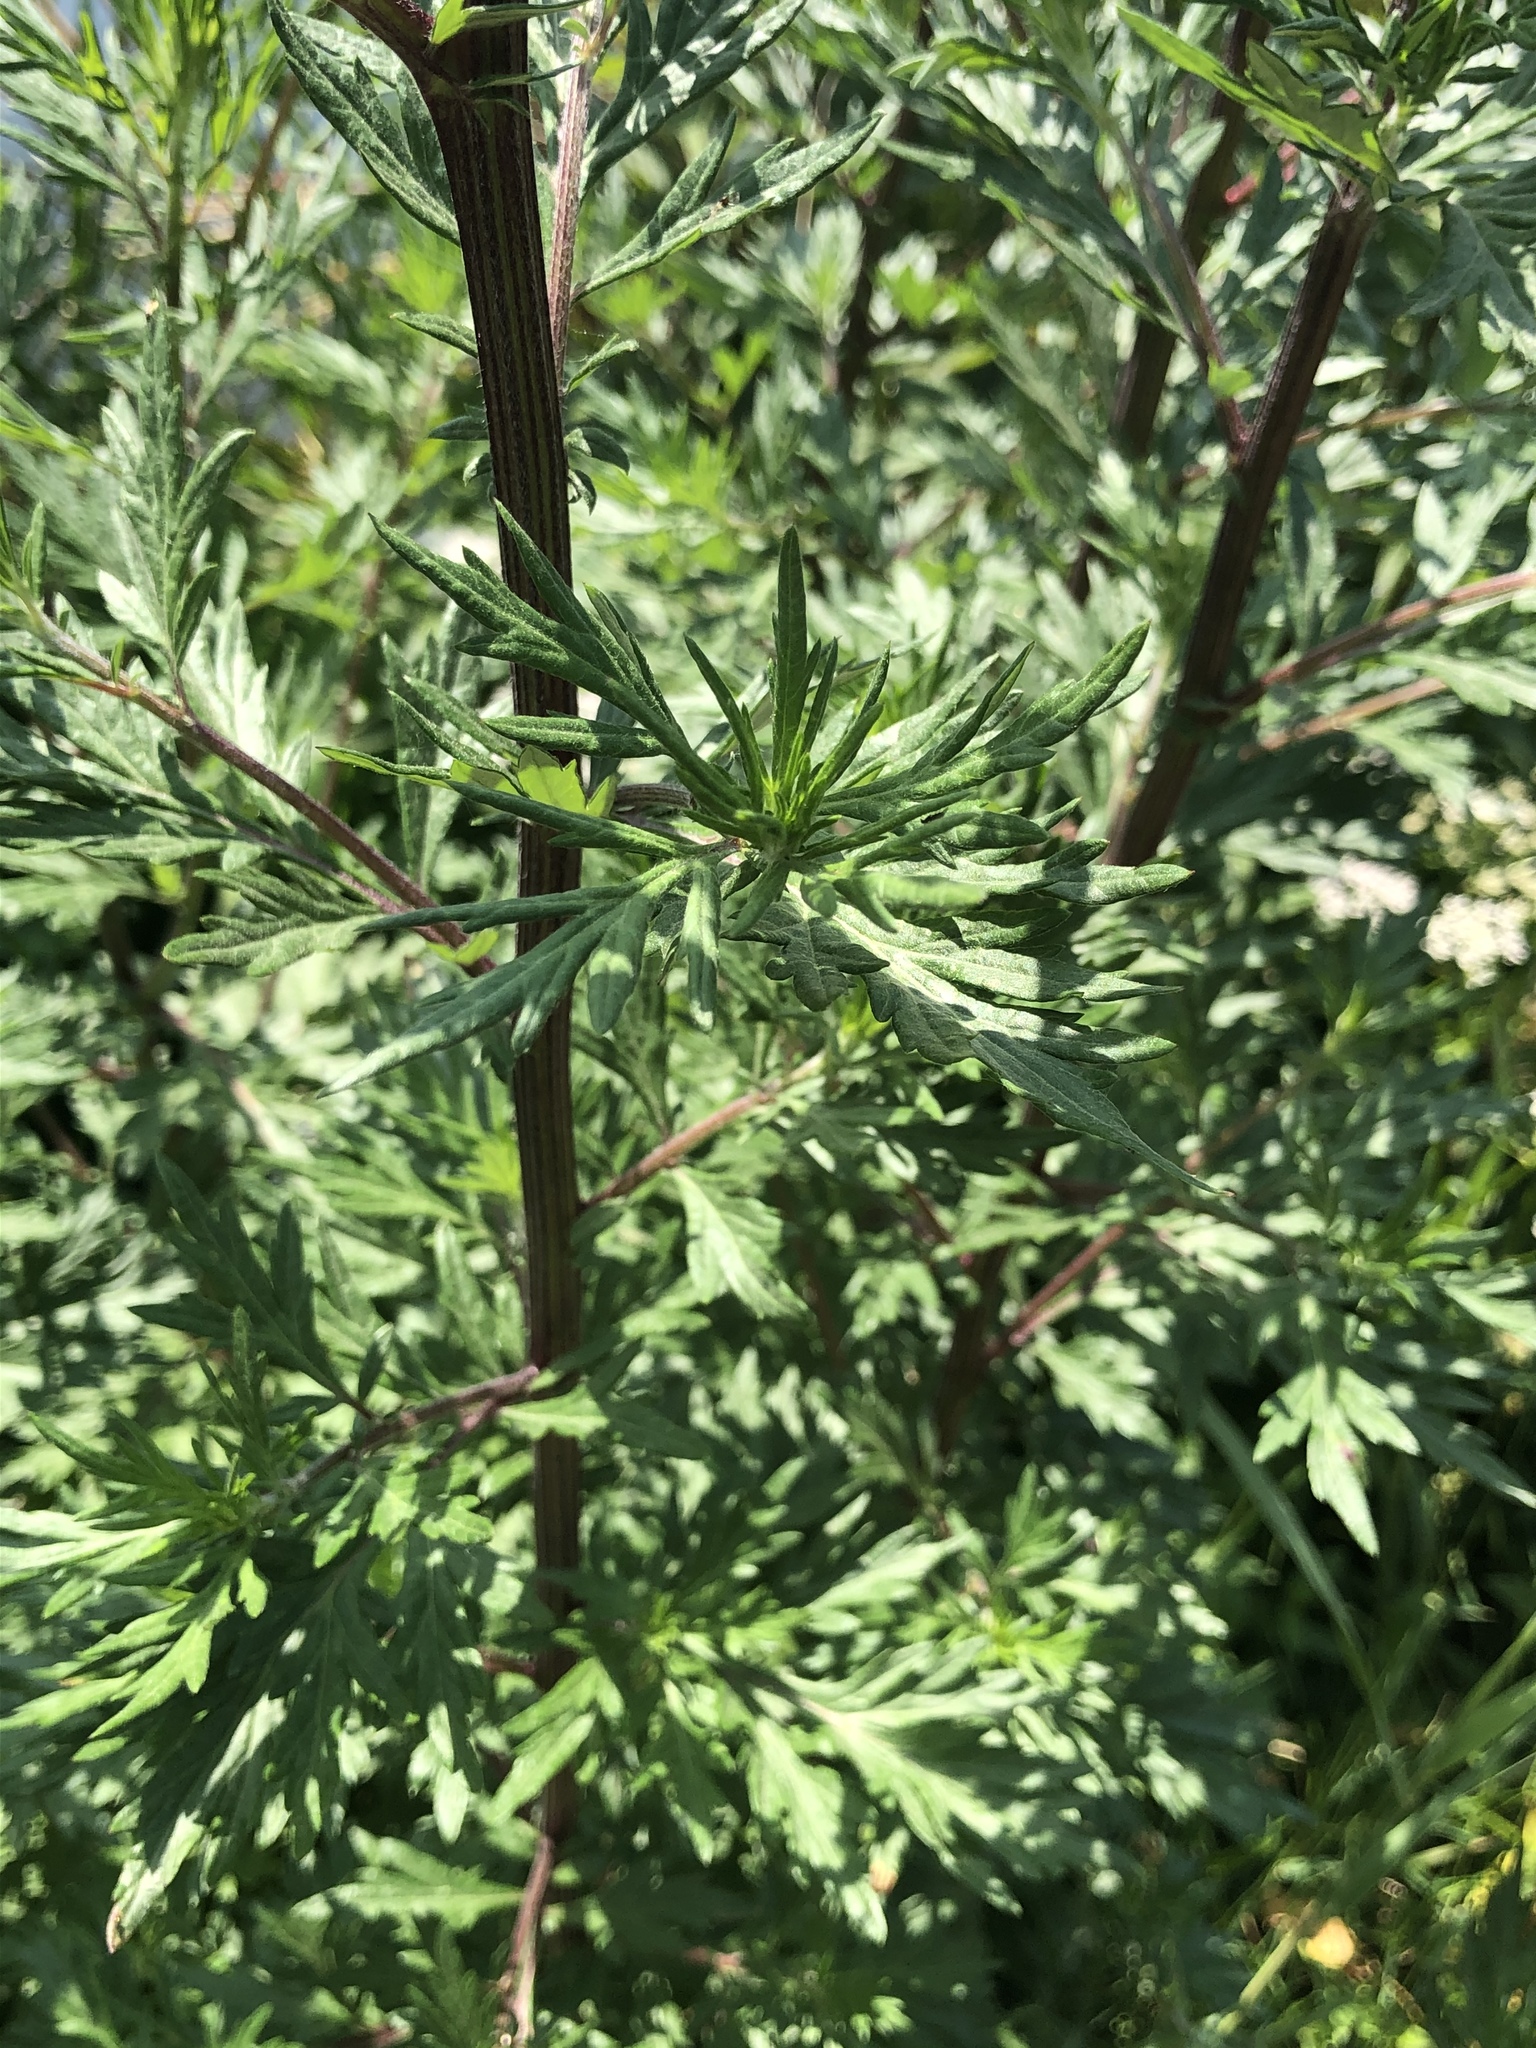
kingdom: Plantae
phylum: Tracheophyta
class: Magnoliopsida
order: Asterales
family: Asteraceae
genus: Artemisia
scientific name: Artemisia vulgaris
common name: Mugwort
